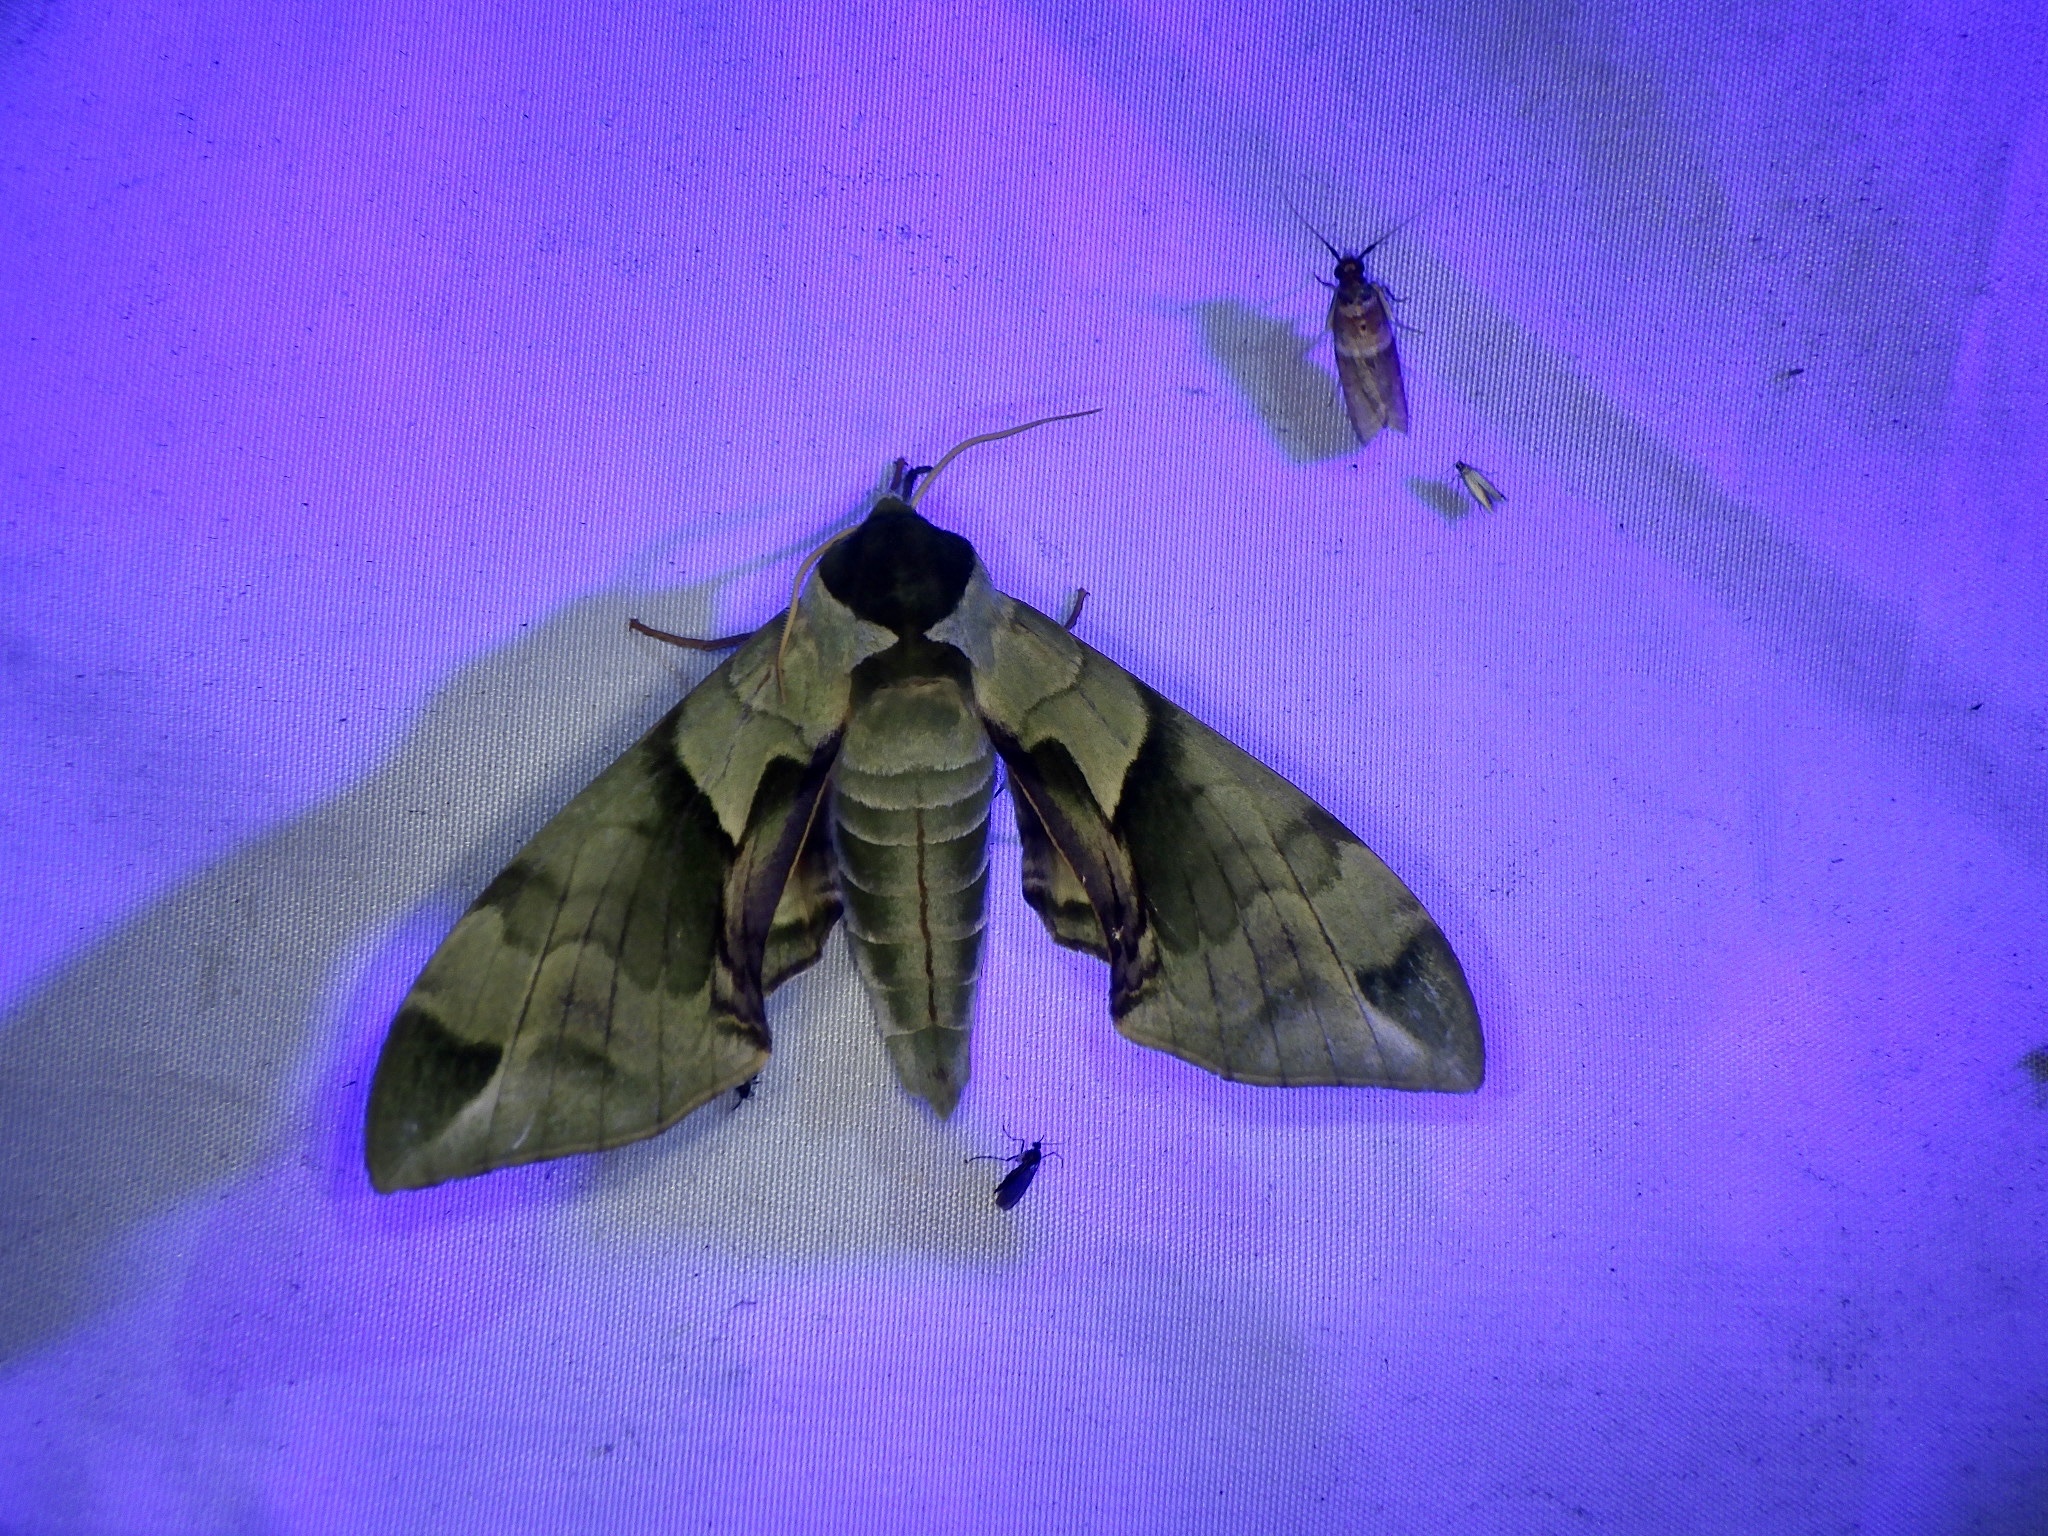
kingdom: Animalia
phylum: Arthropoda
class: Insecta
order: Lepidoptera
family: Sphingidae
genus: Callambulyx
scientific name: Callambulyx tatarinovii
